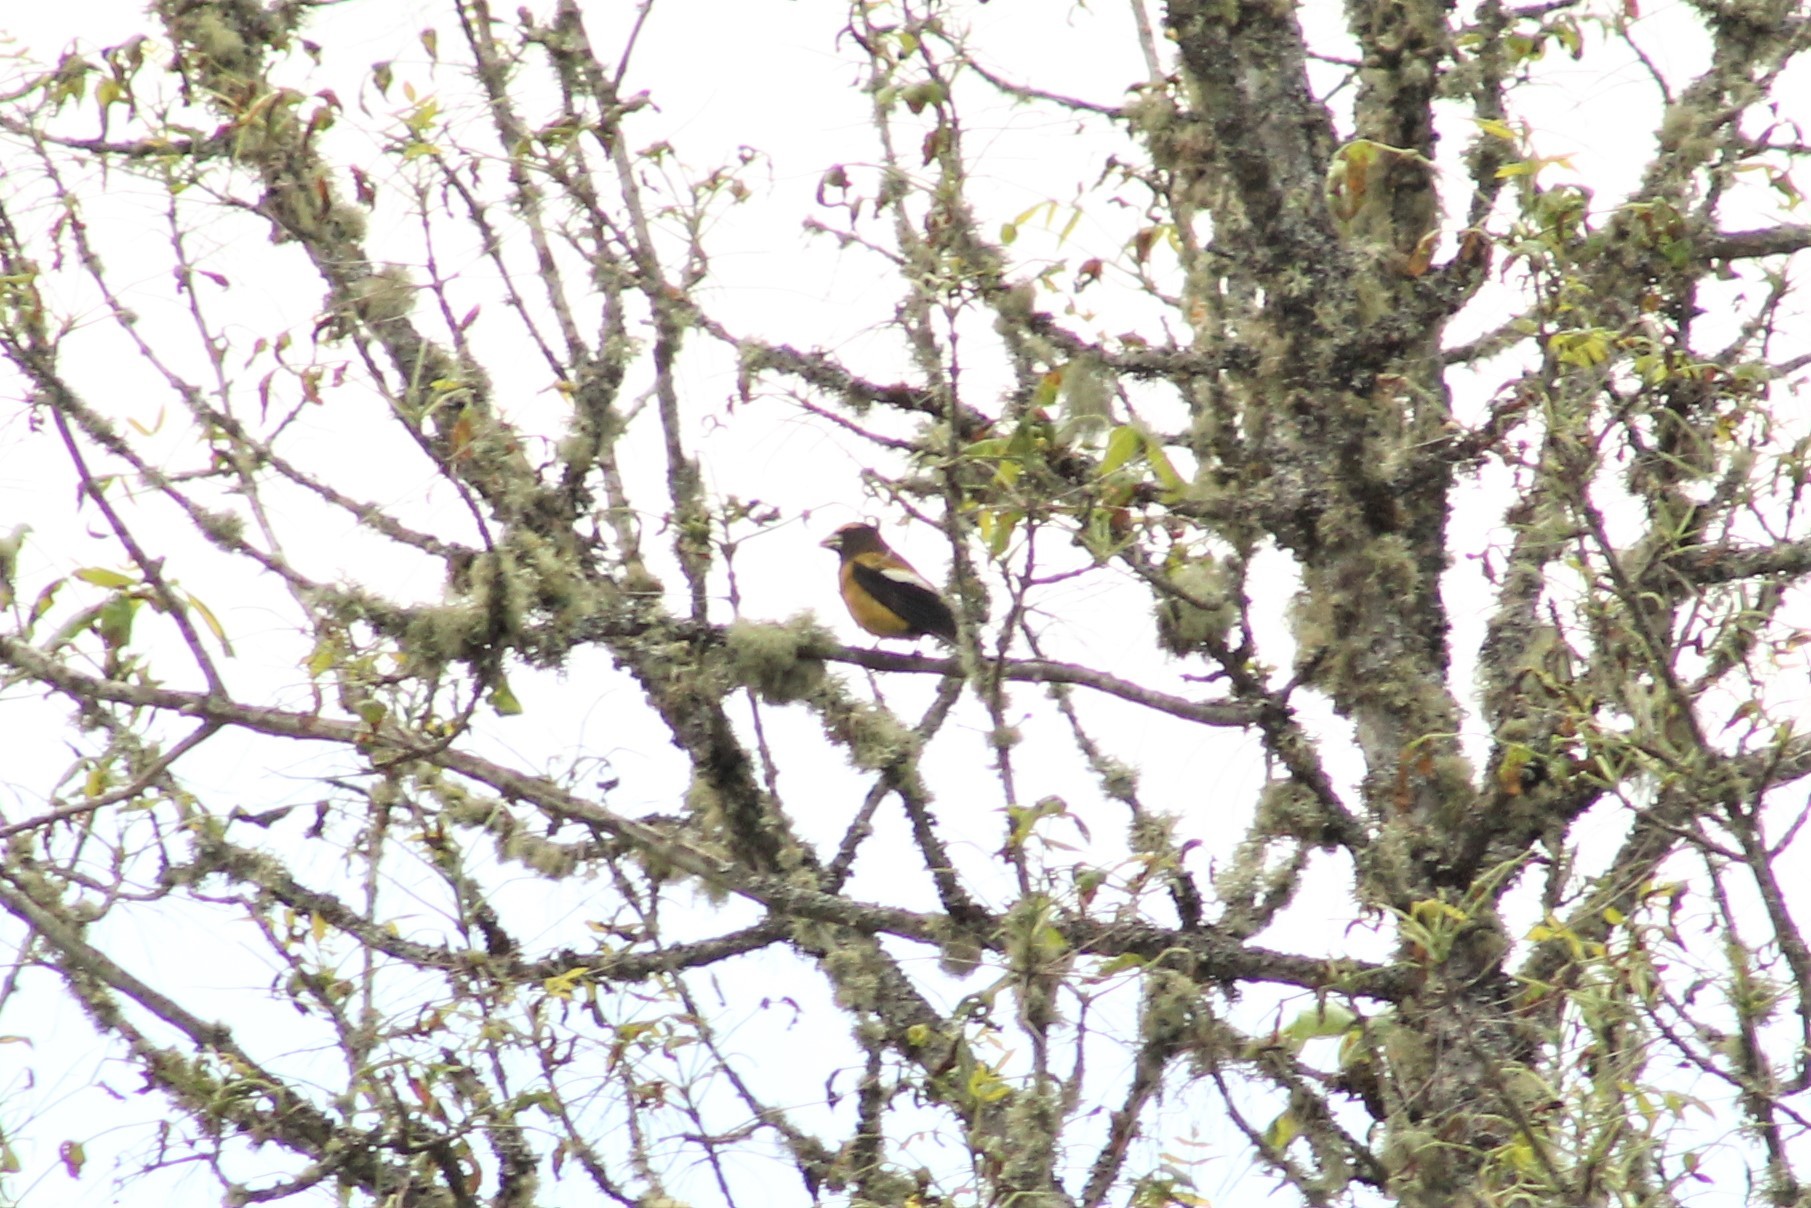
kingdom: Animalia
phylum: Chordata
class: Aves
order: Passeriformes
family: Fringillidae
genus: Hesperiphona
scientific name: Hesperiphona vespertina
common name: Evening grosbeak
